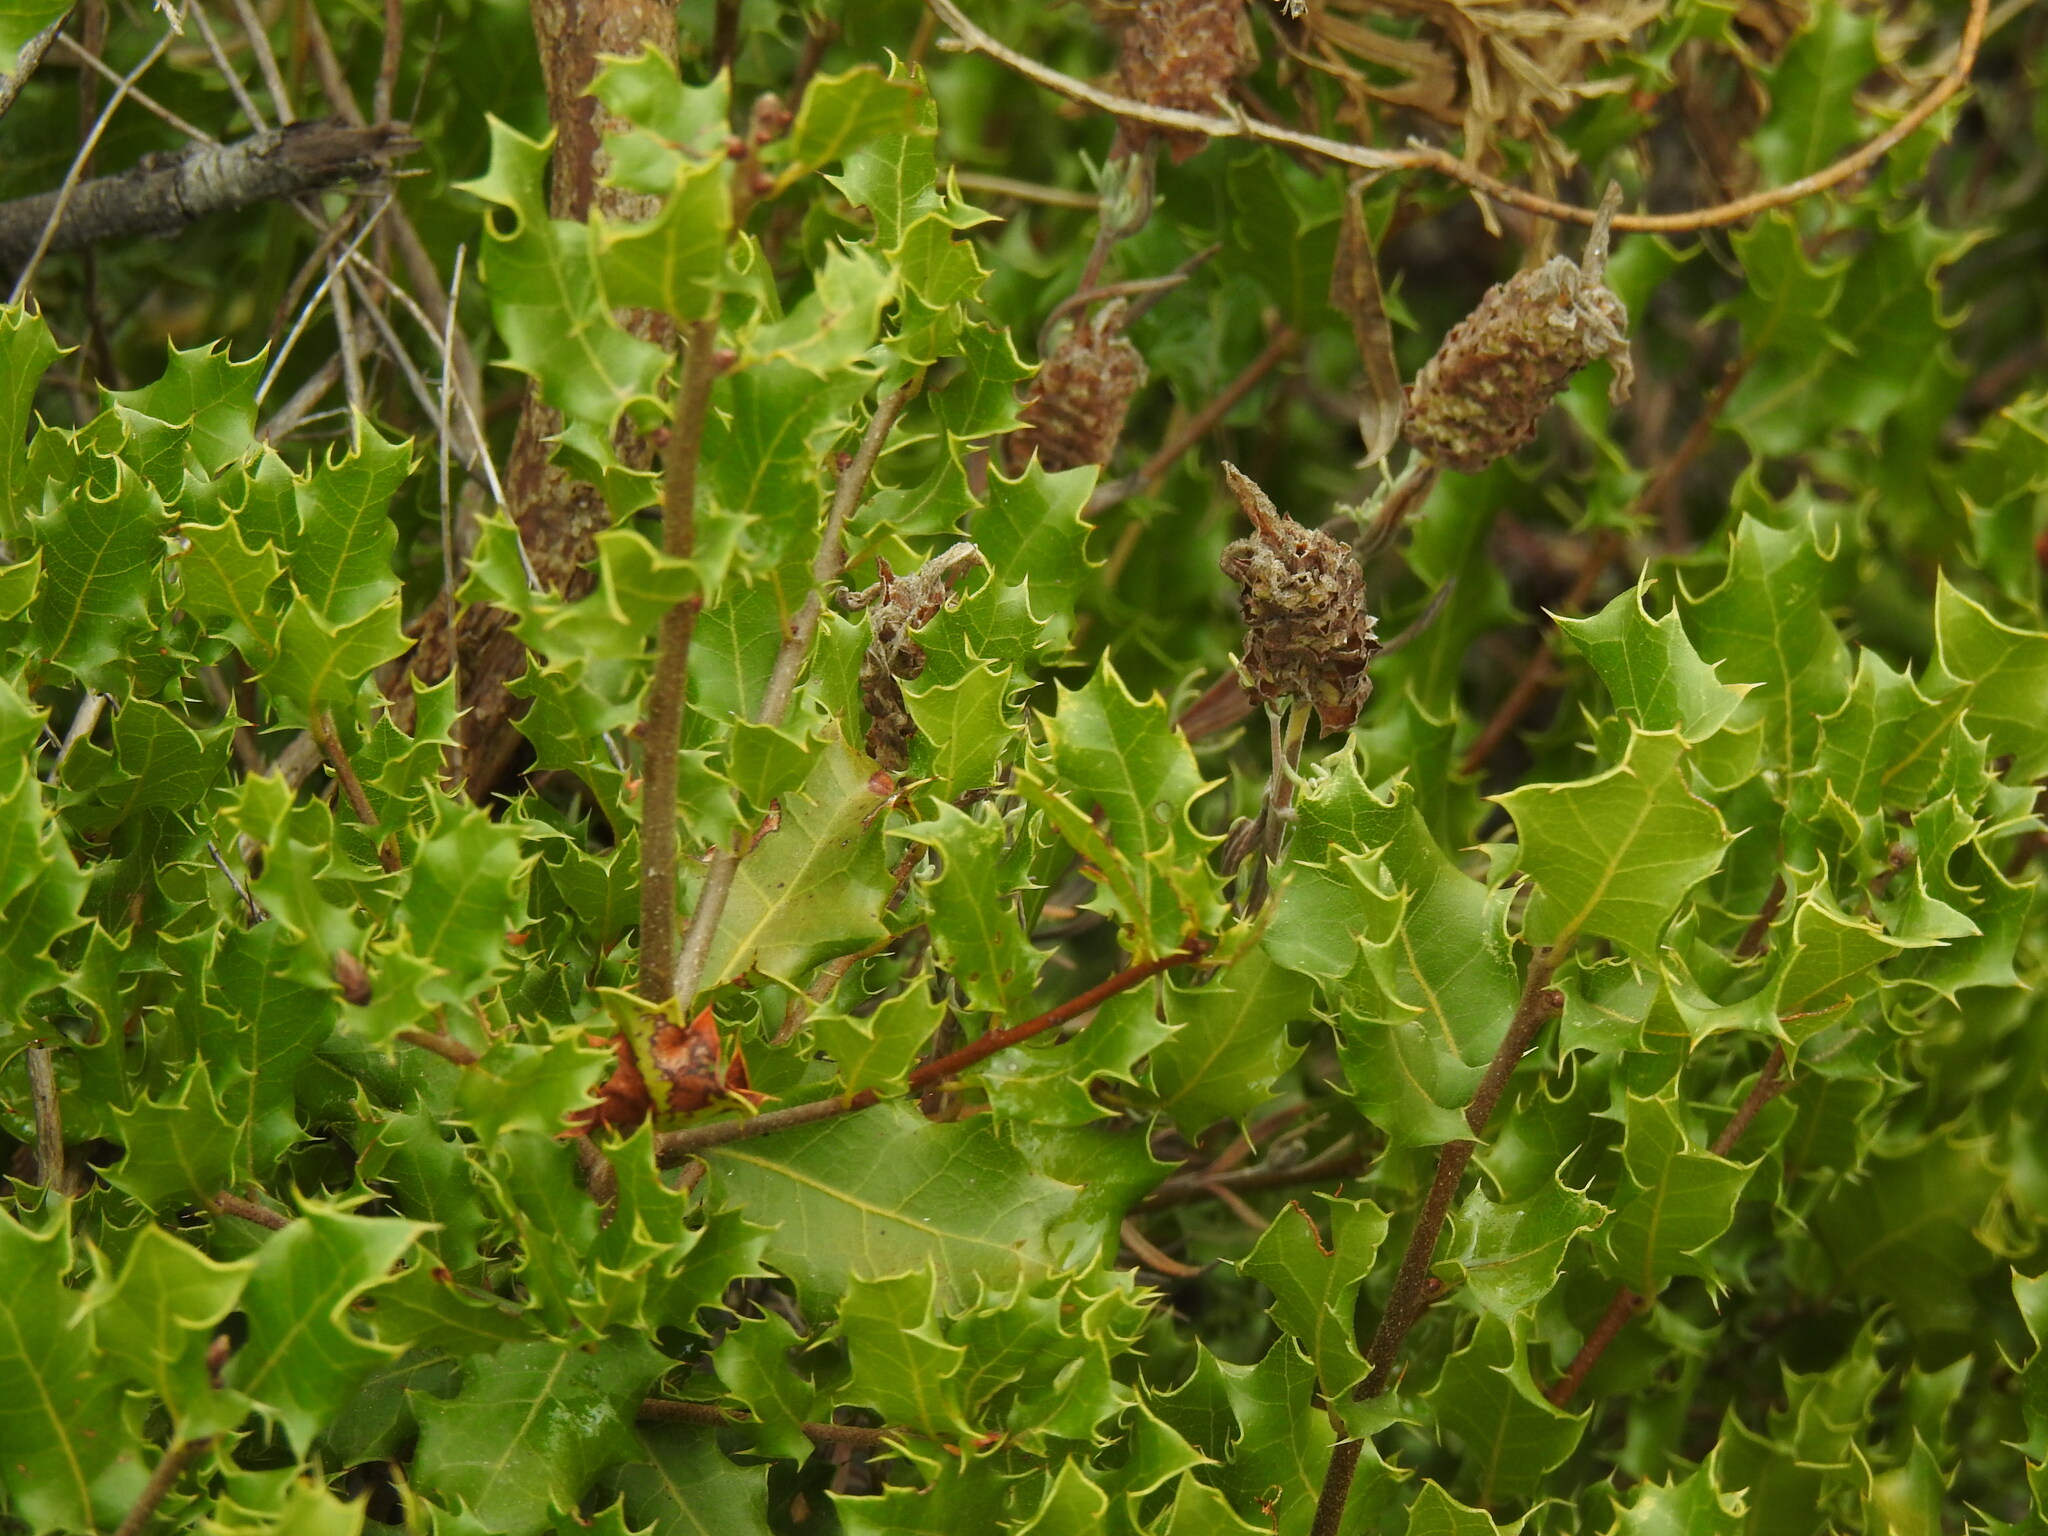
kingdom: Plantae
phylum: Tracheophyta
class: Magnoliopsida
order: Fagales
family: Fagaceae
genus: Quercus
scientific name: Quercus coccifera
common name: Kermes oak
